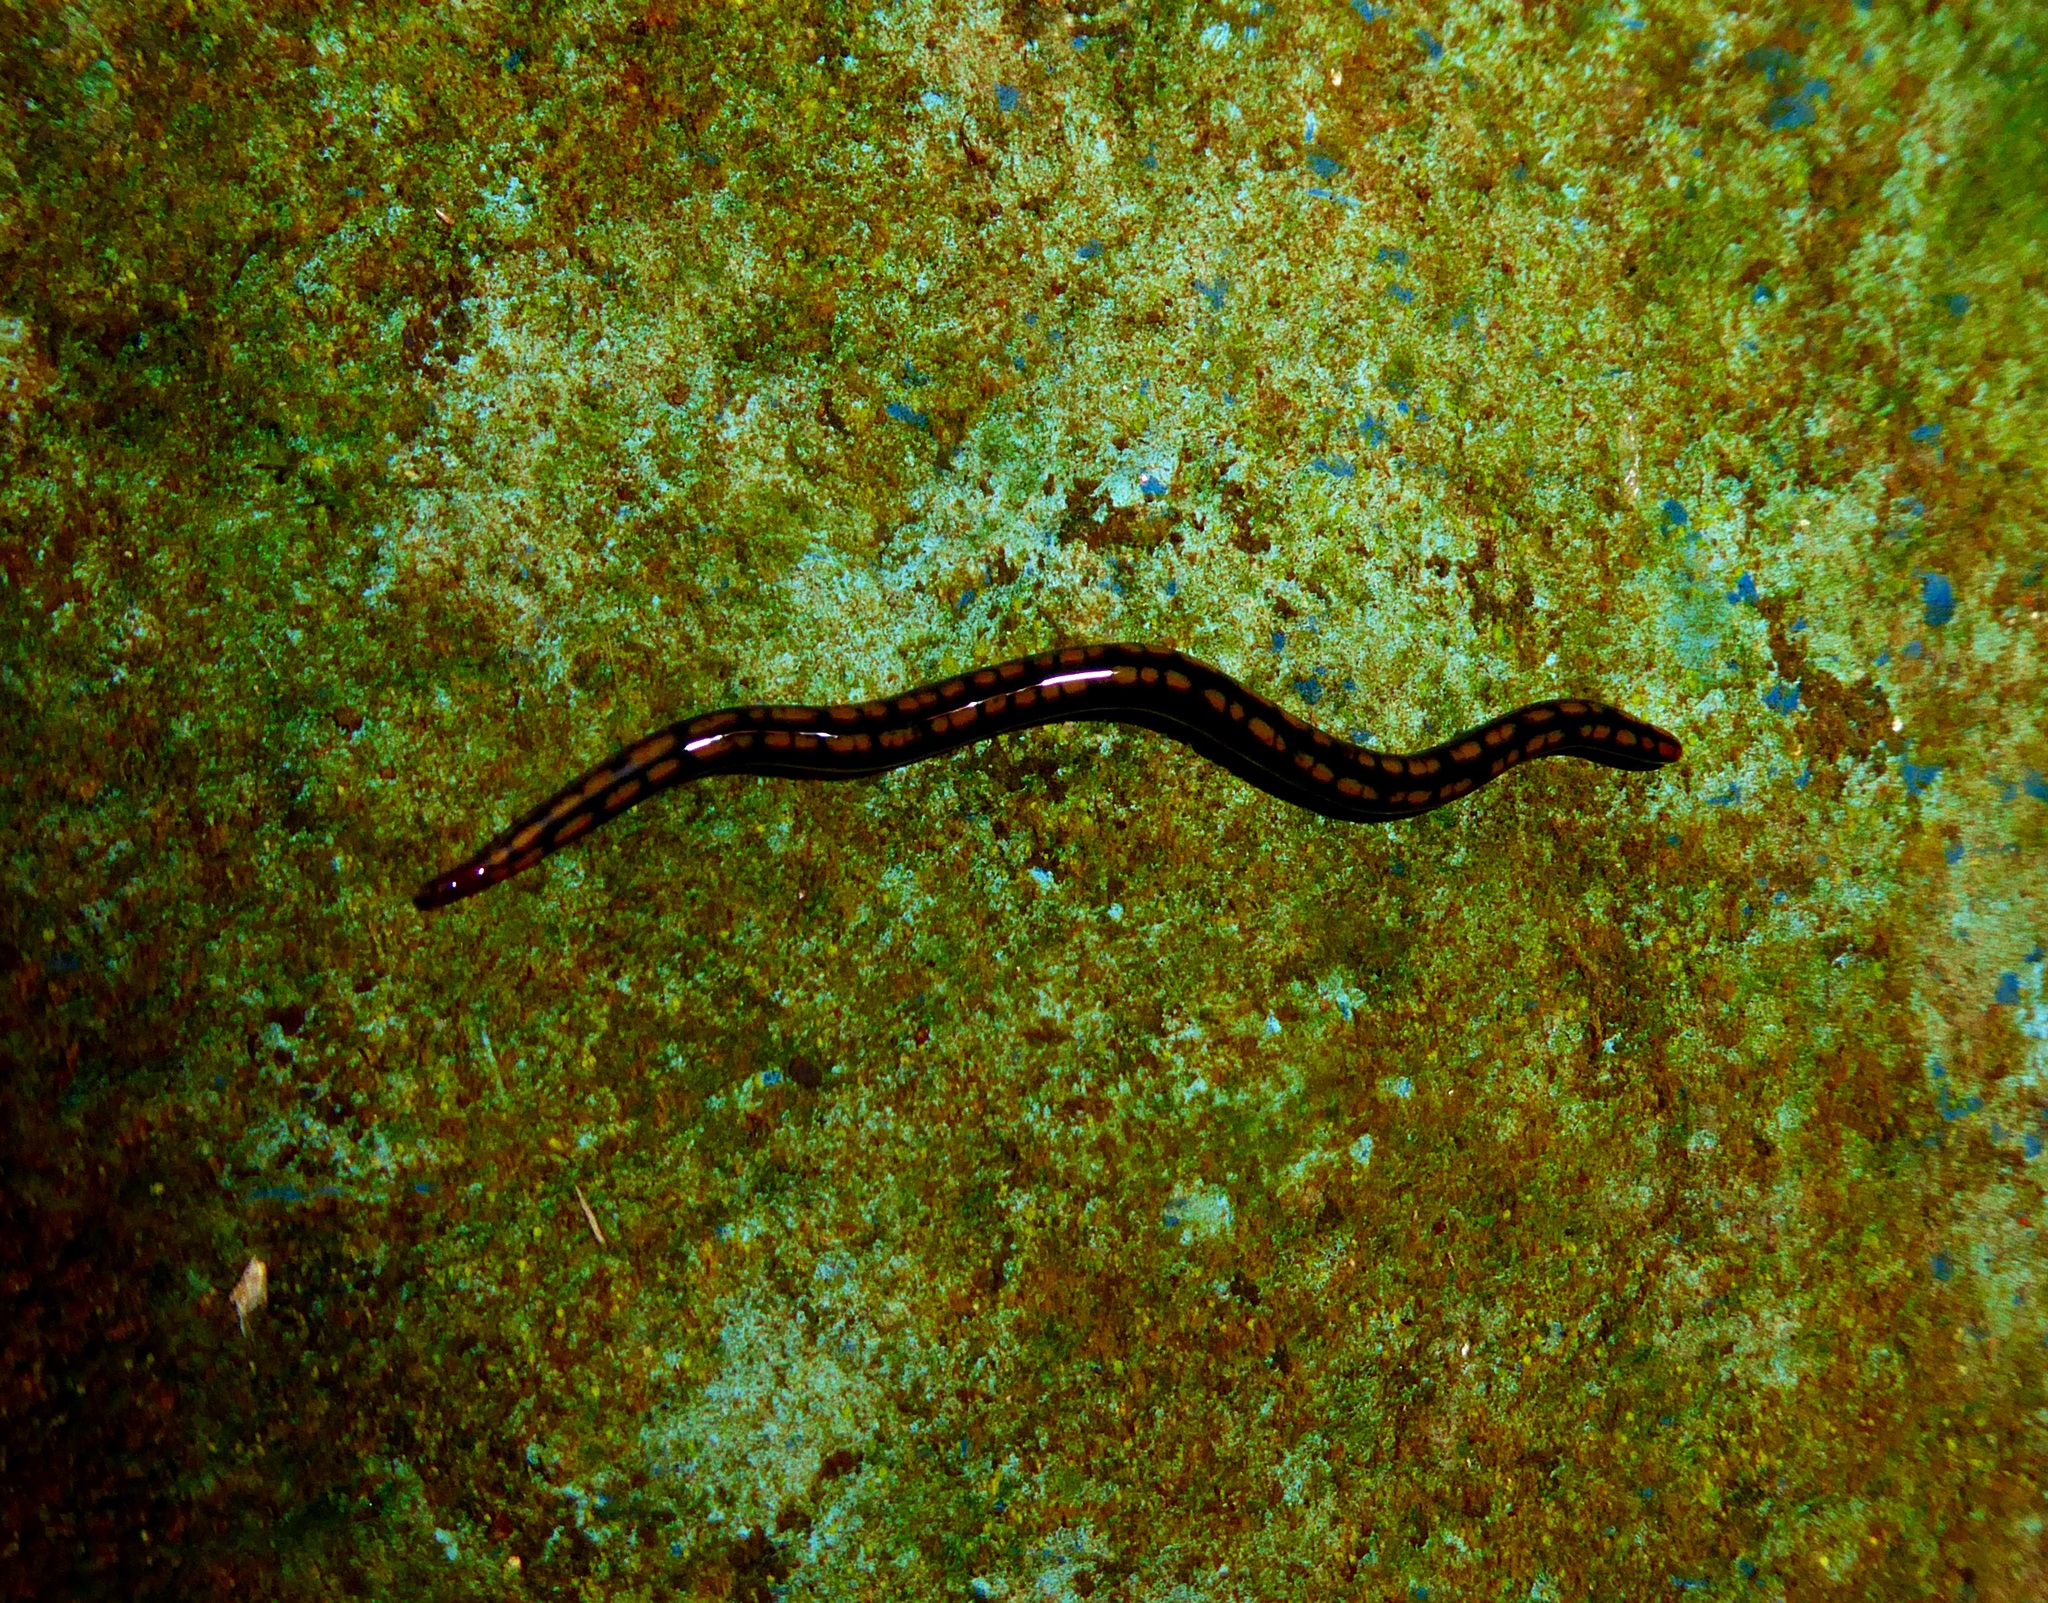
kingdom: Animalia
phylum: Platyhelminthes
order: Tricladida
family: Geoplanidae
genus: Othelosoma
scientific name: Othelosoma duplamaculosum
